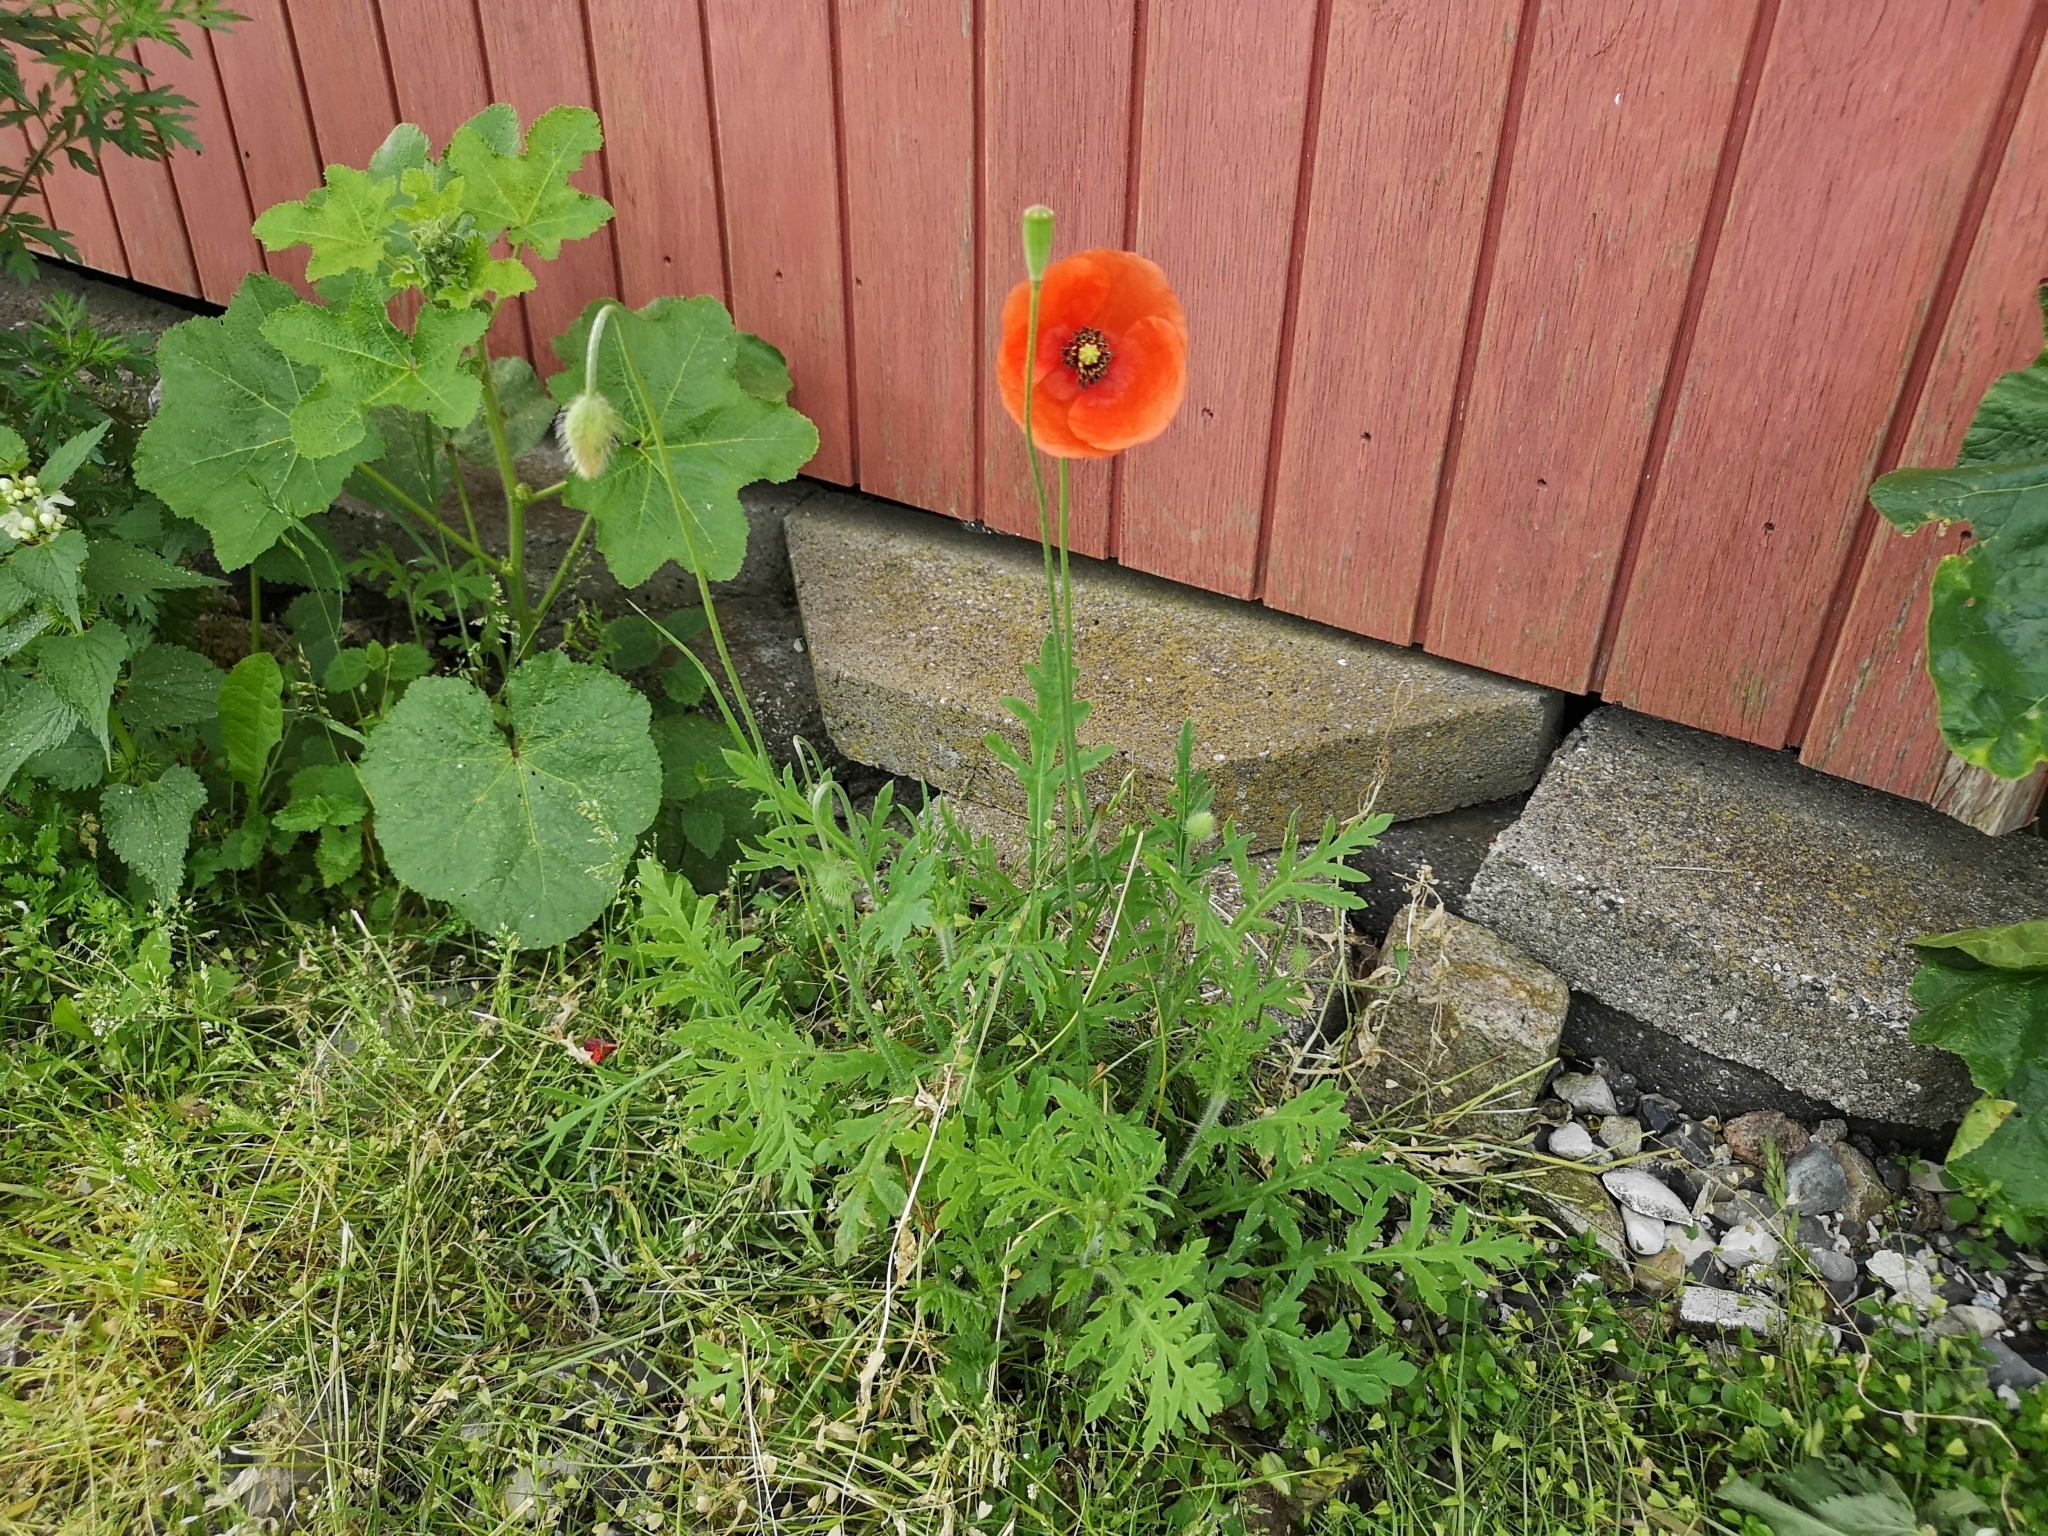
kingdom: Plantae
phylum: Tracheophyta
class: Magnoliopsida
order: Ranunculales
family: Papaveraceae
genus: Papaver
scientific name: Papaver dubium
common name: Long-headed poppy
